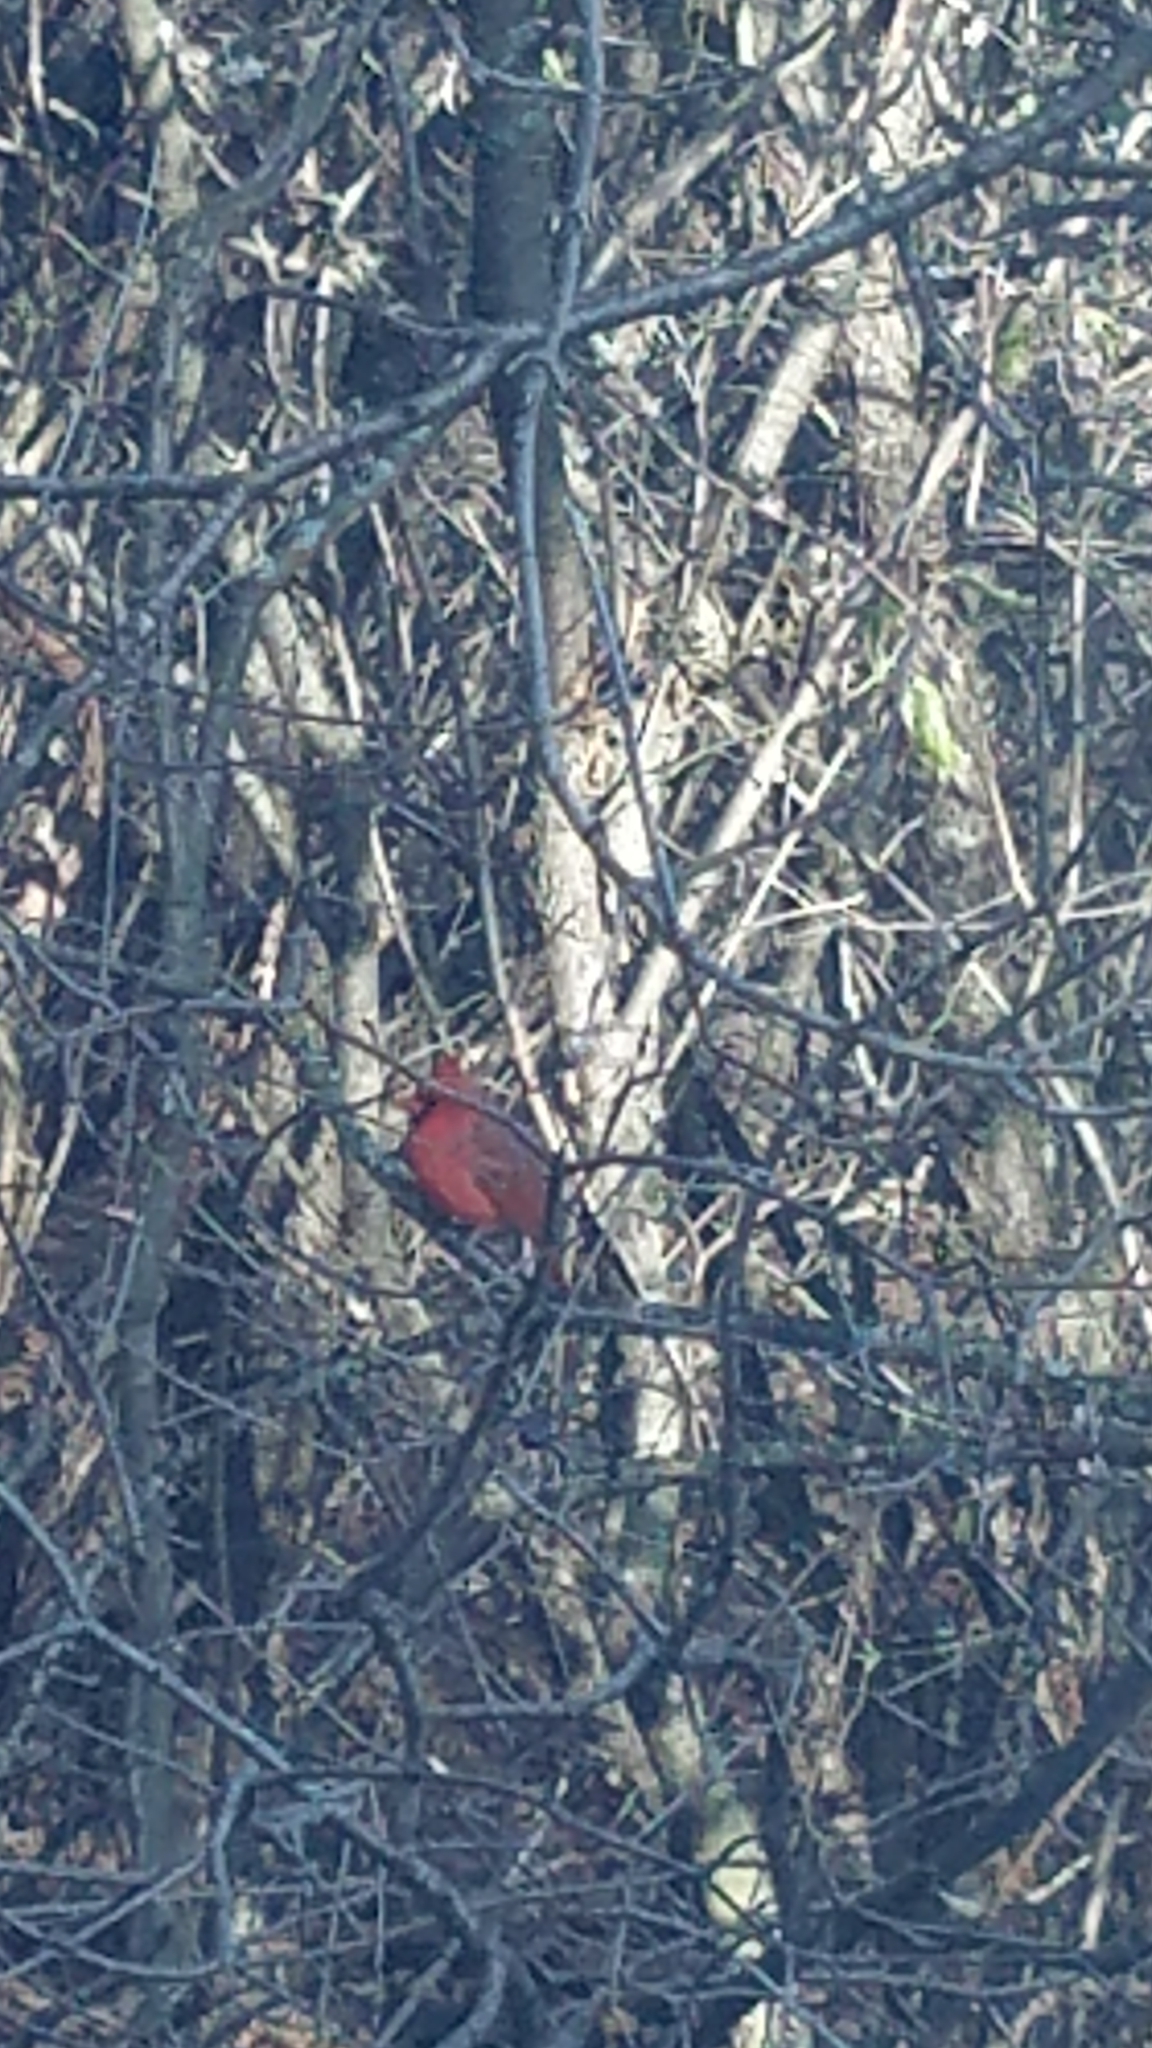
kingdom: Animalia
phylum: Chordata
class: Aves
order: Passeriformes
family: Cardinalidae
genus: Cardinalis
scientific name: Cardinalis cardinalis
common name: Northern cardinal
